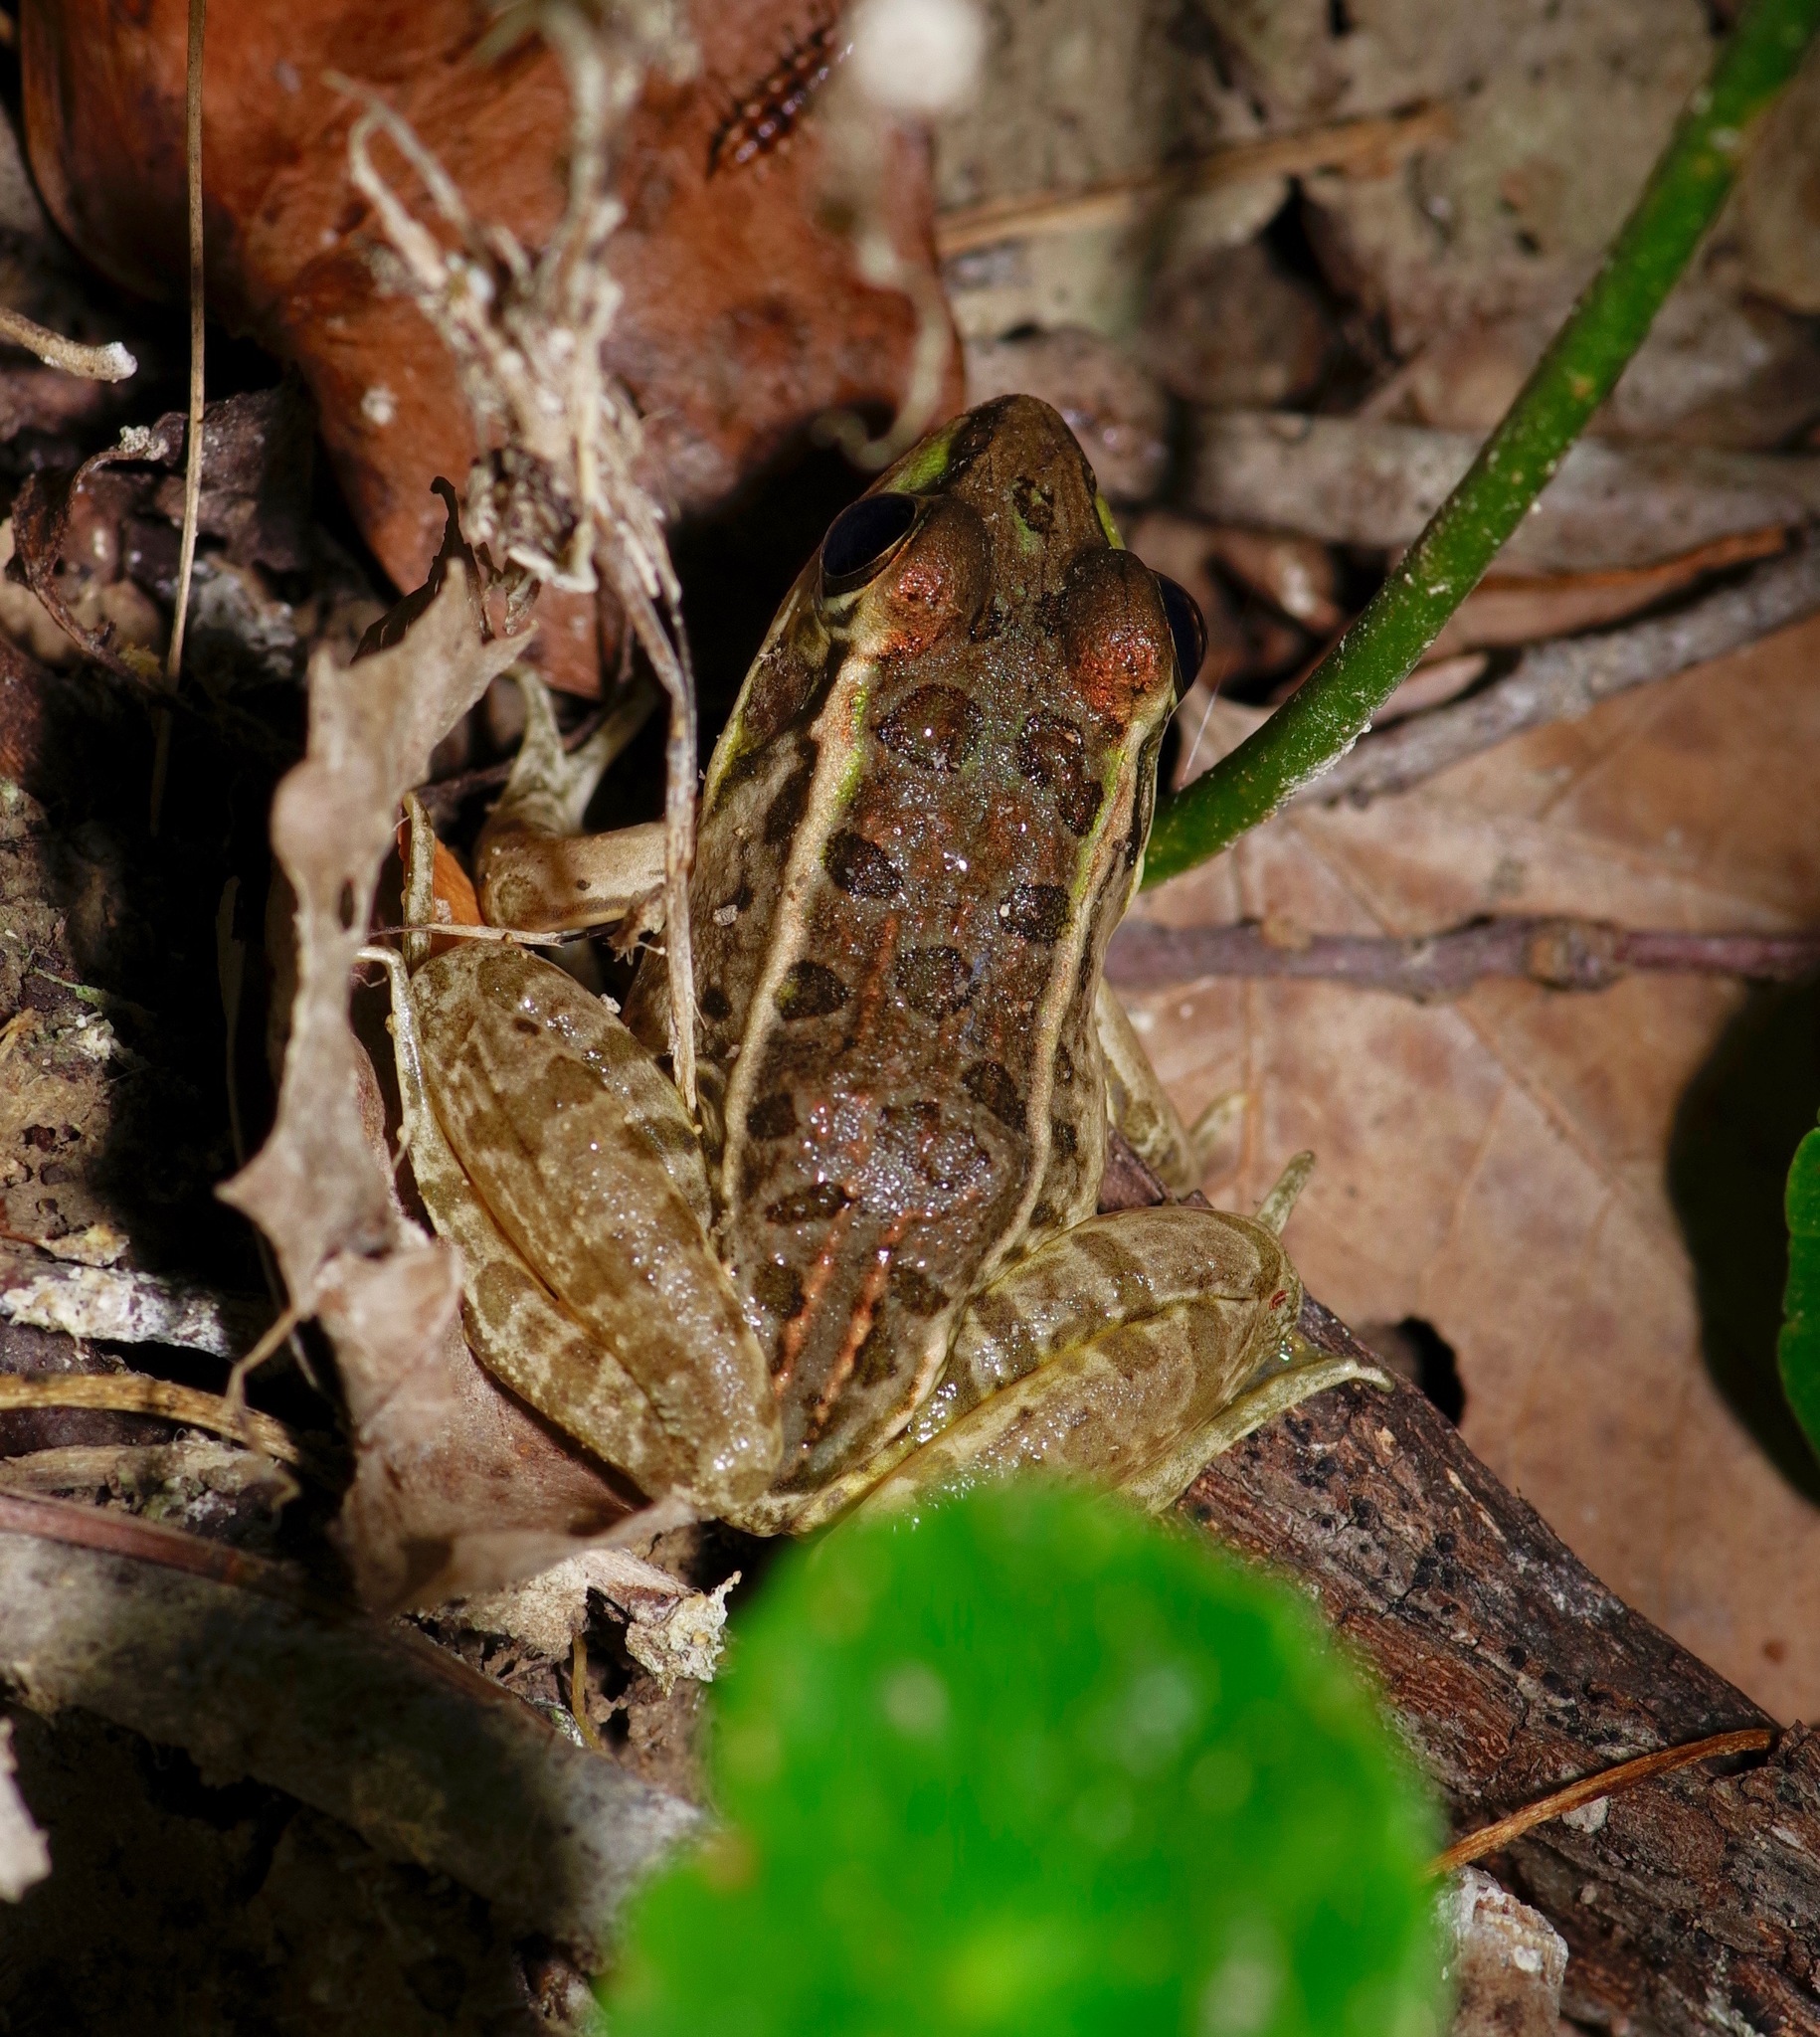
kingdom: Animalia
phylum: Chordata
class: Amphibia
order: Anura
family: Ranidae
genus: Lithobates
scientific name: Lithobates berlandieri
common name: Rio grande leopard frog
